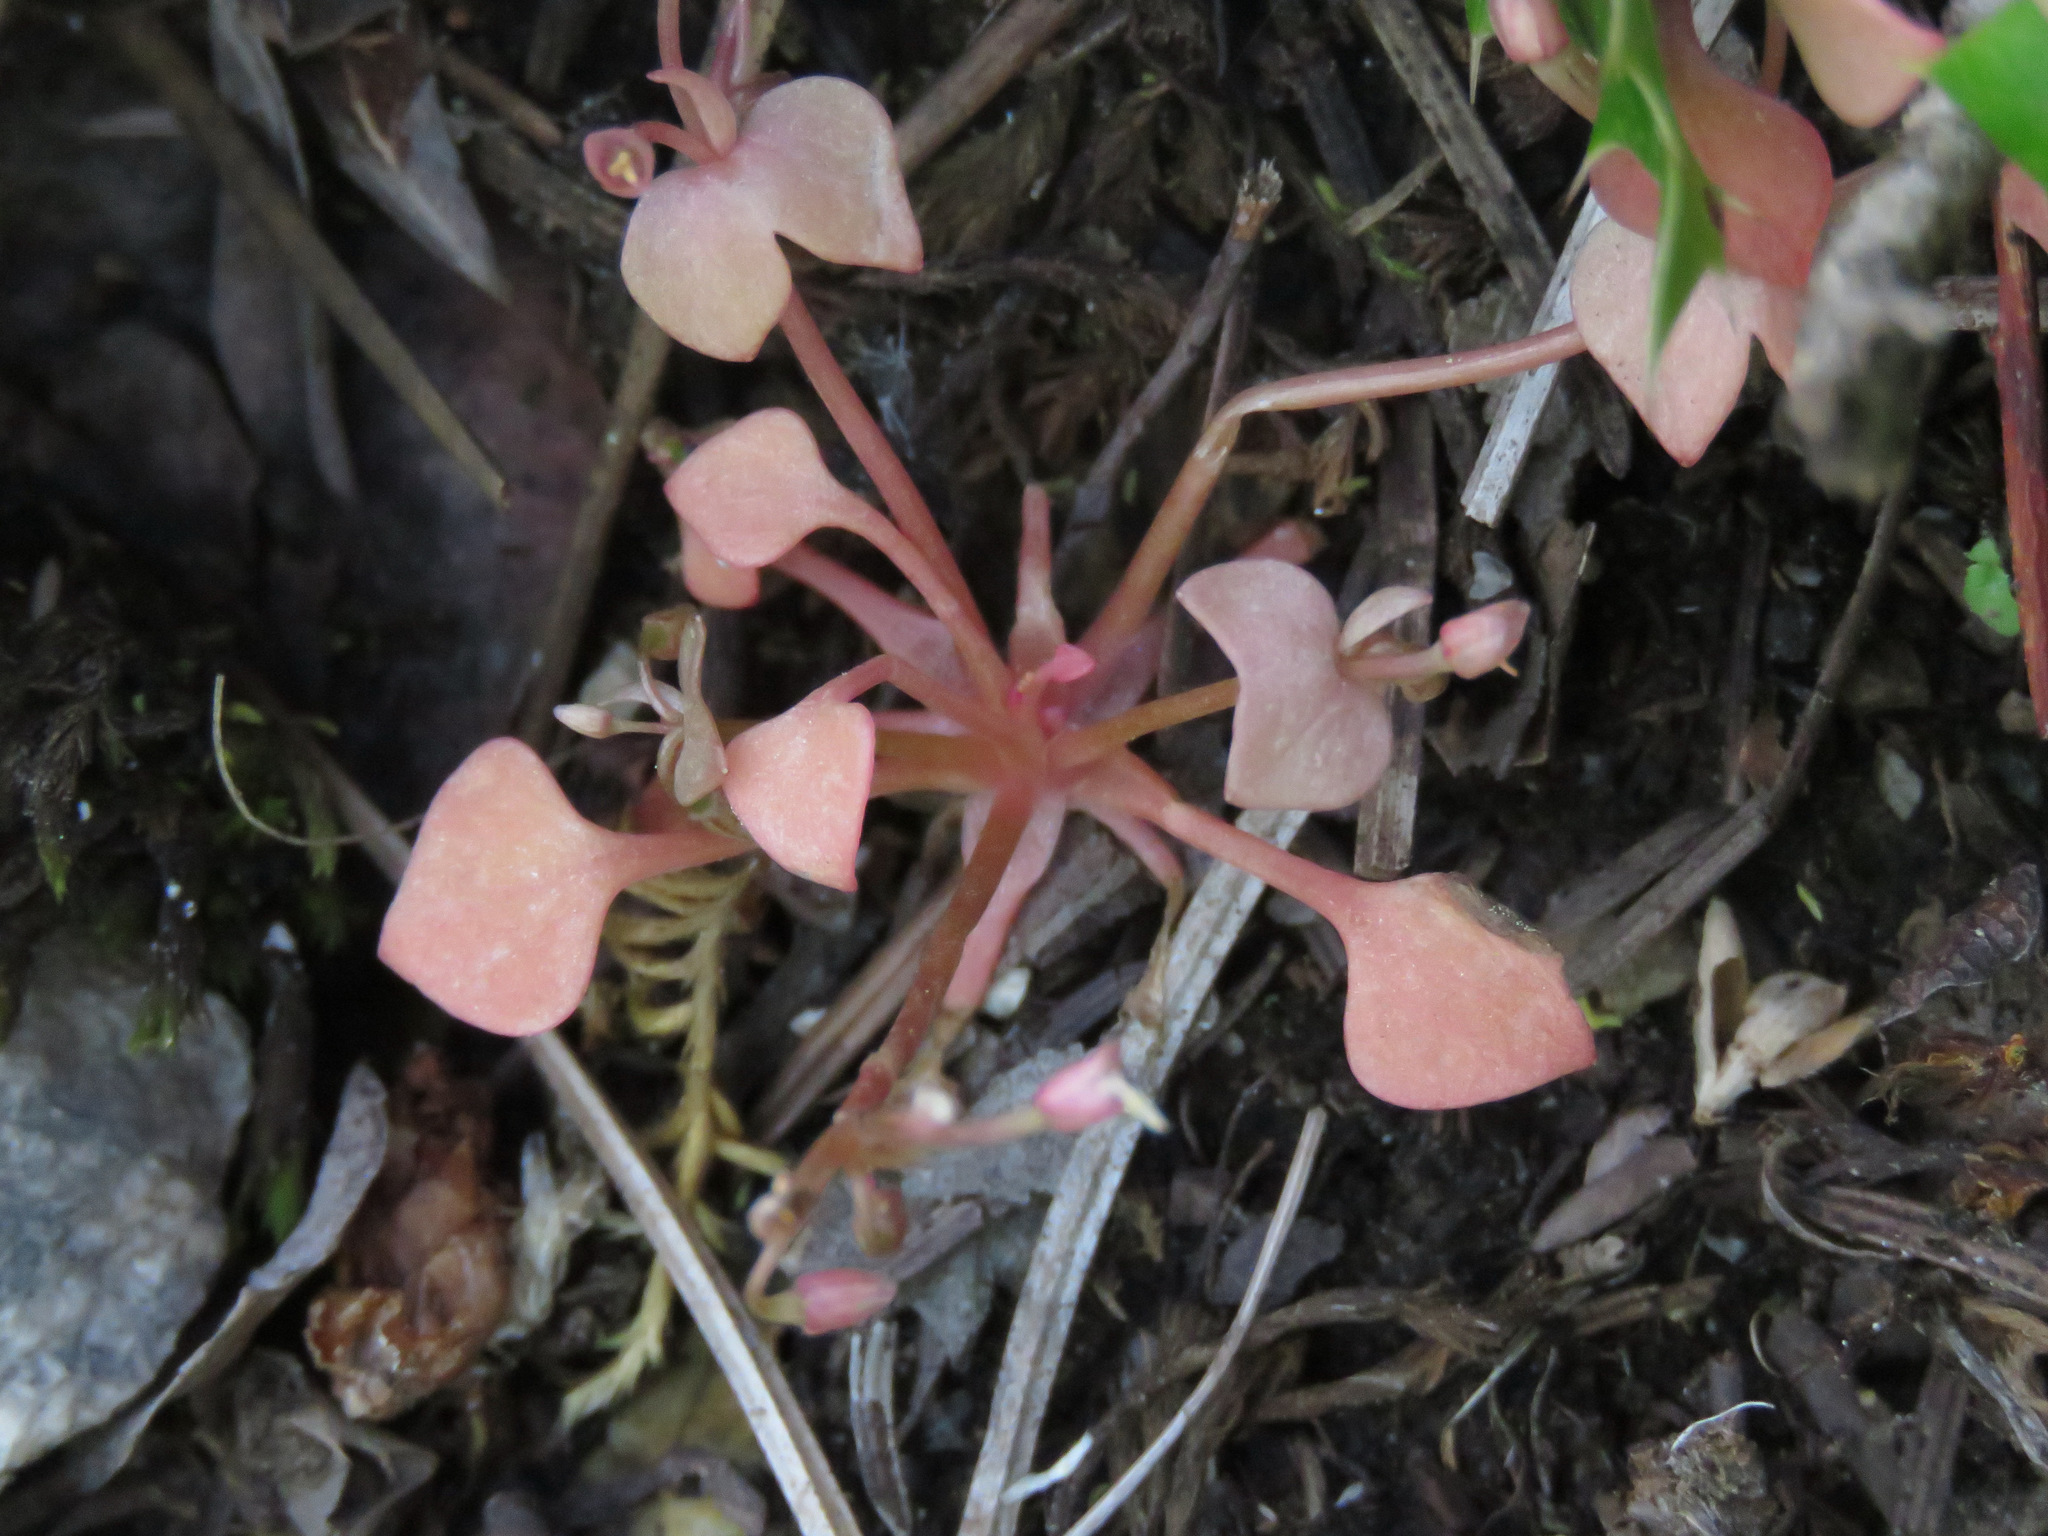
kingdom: Plantae
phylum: Tracheophyta
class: Magnoliopsida
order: Caryophyllales
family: Montiaceae
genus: Claytonia
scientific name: Claytonia rubra
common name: Erubescent miner's-lettuce
